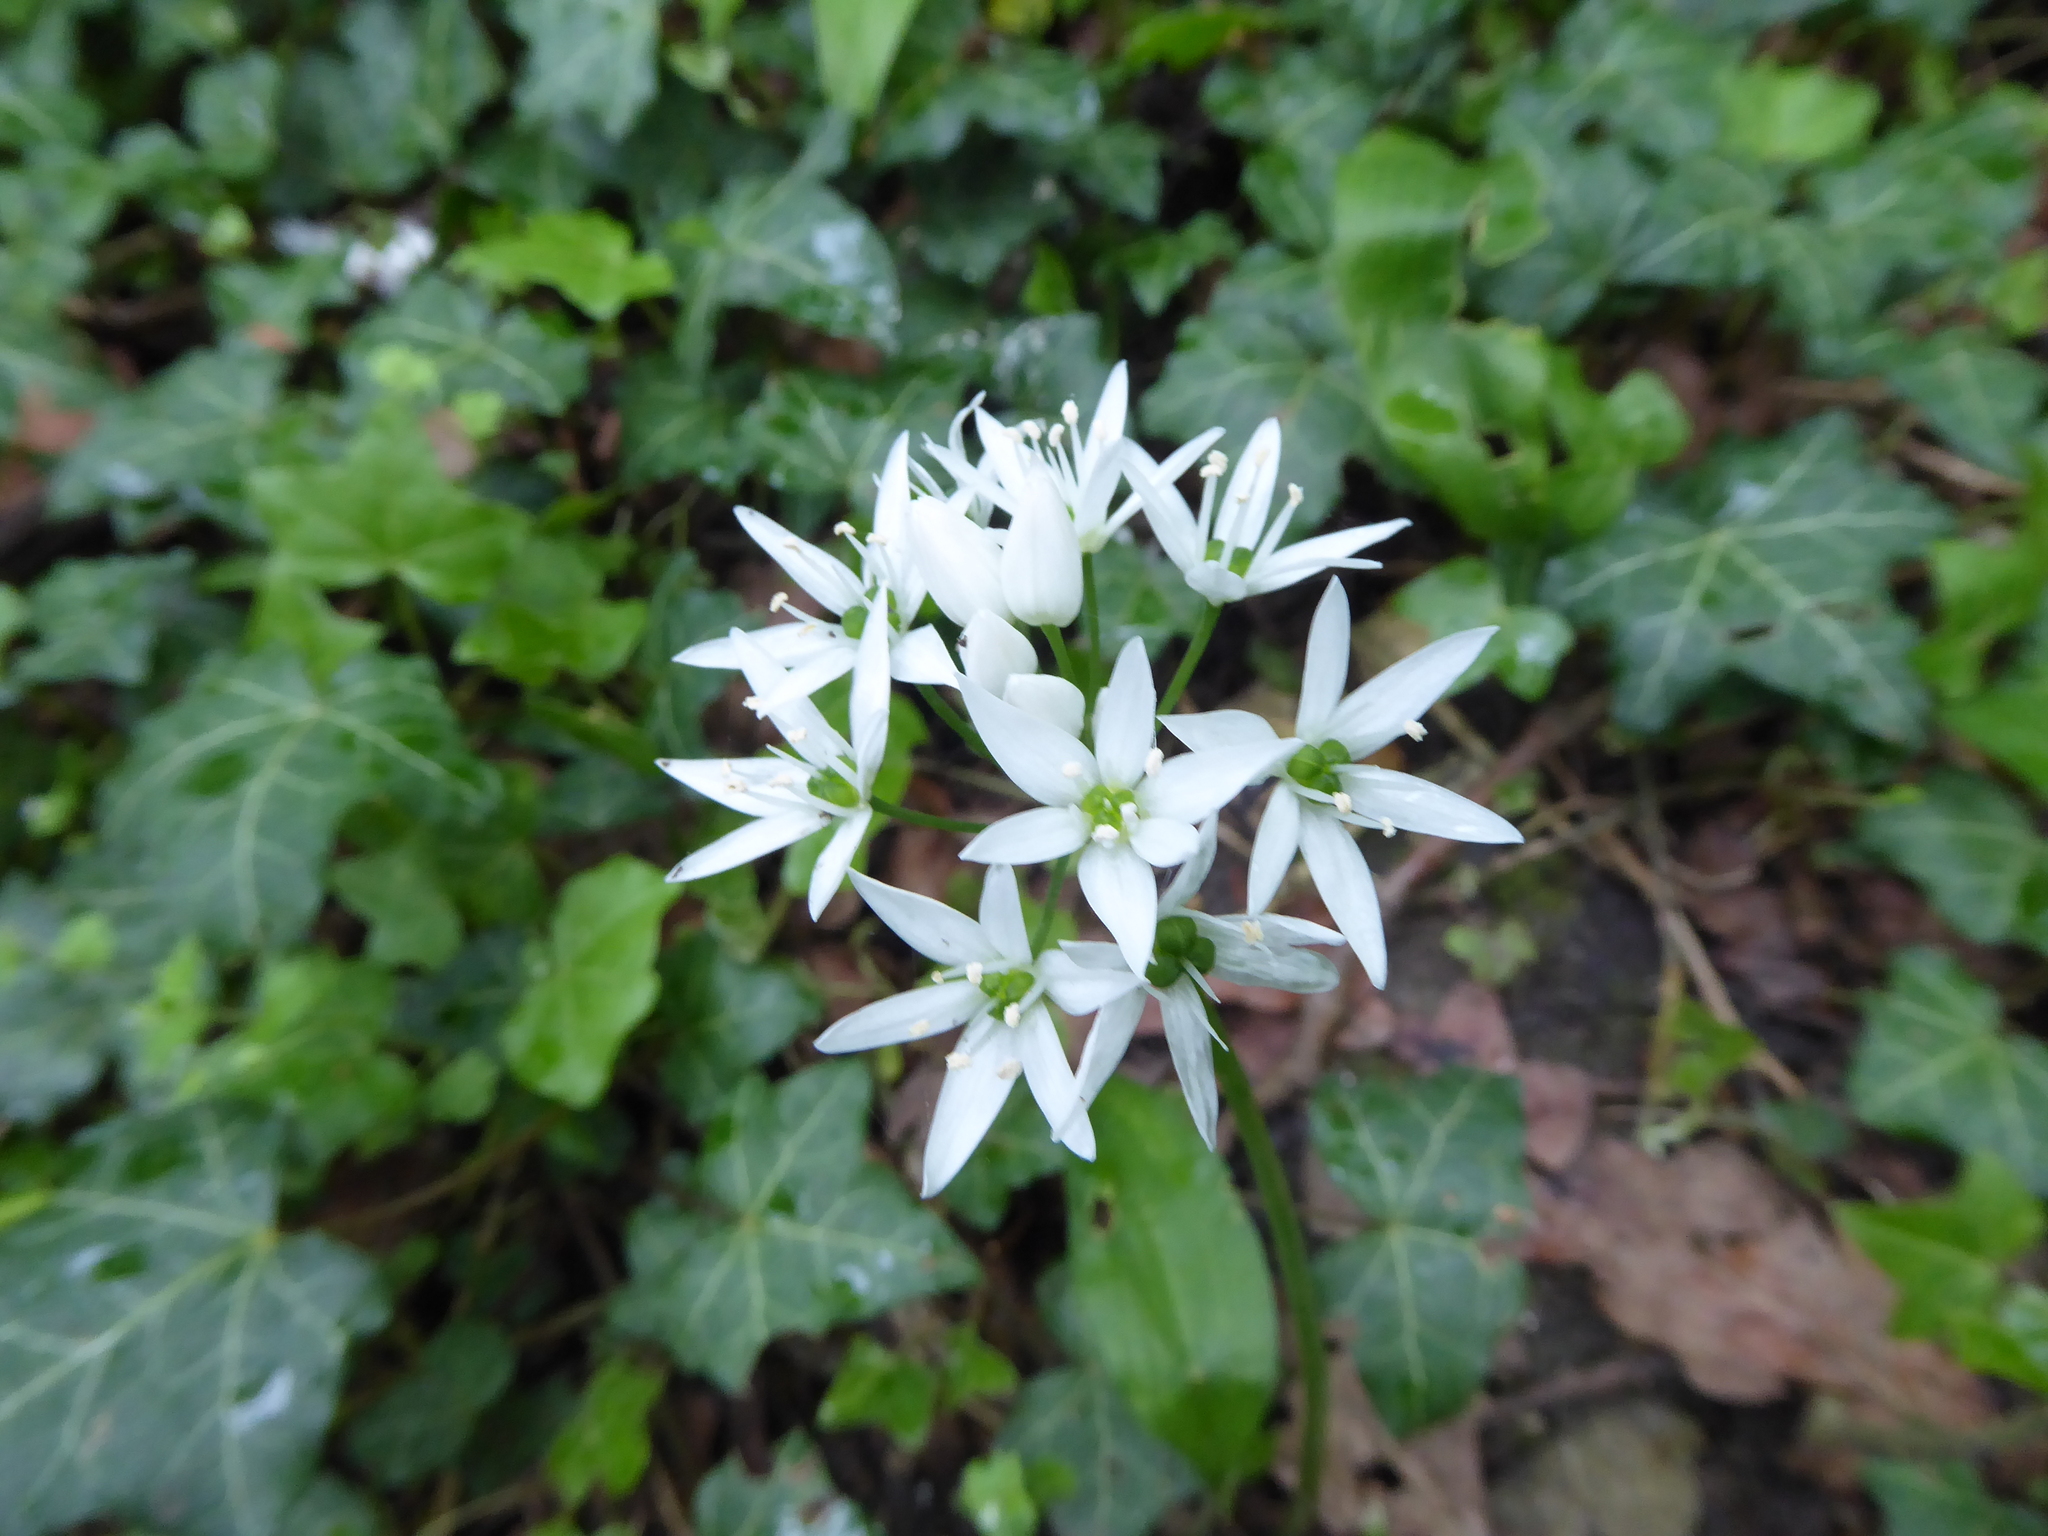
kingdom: Plantae
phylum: Tracheophyta
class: Liliopsida
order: Asparagales
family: Amaryllidaceae
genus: Allium
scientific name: Allium ursinum
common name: Ramsons
